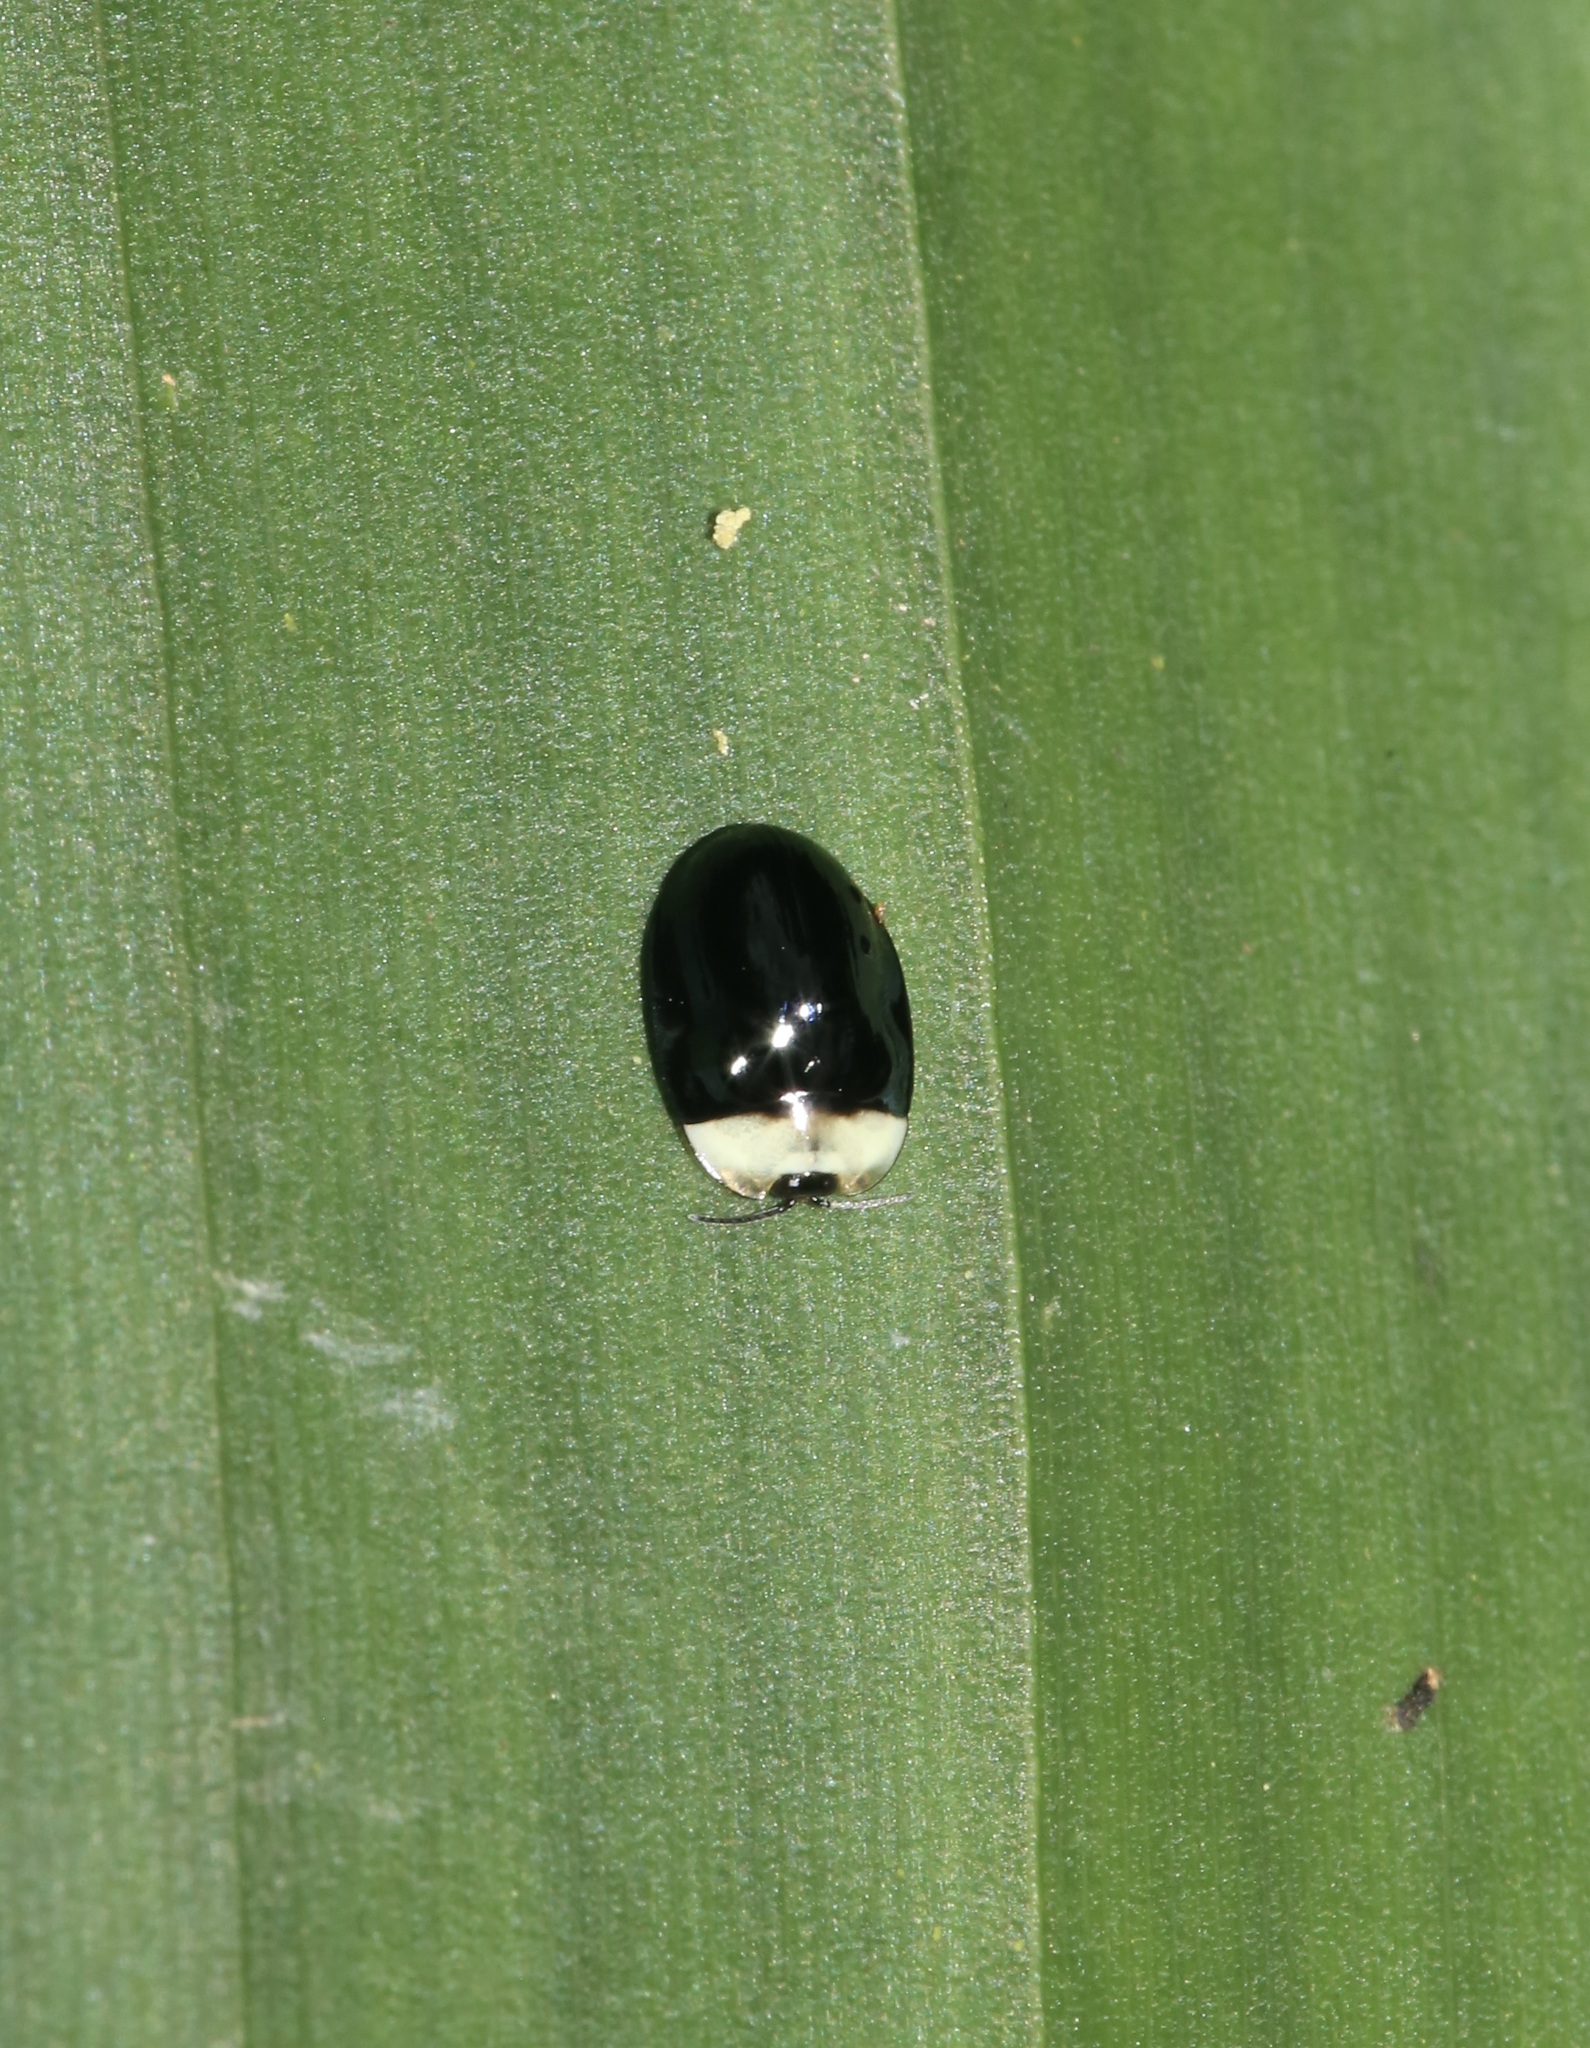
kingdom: Animalia
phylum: Arthropoda
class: Insecta
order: Coleoptera
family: Chrysomelidae
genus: Imatidium
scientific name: Imatidium thoracicum
